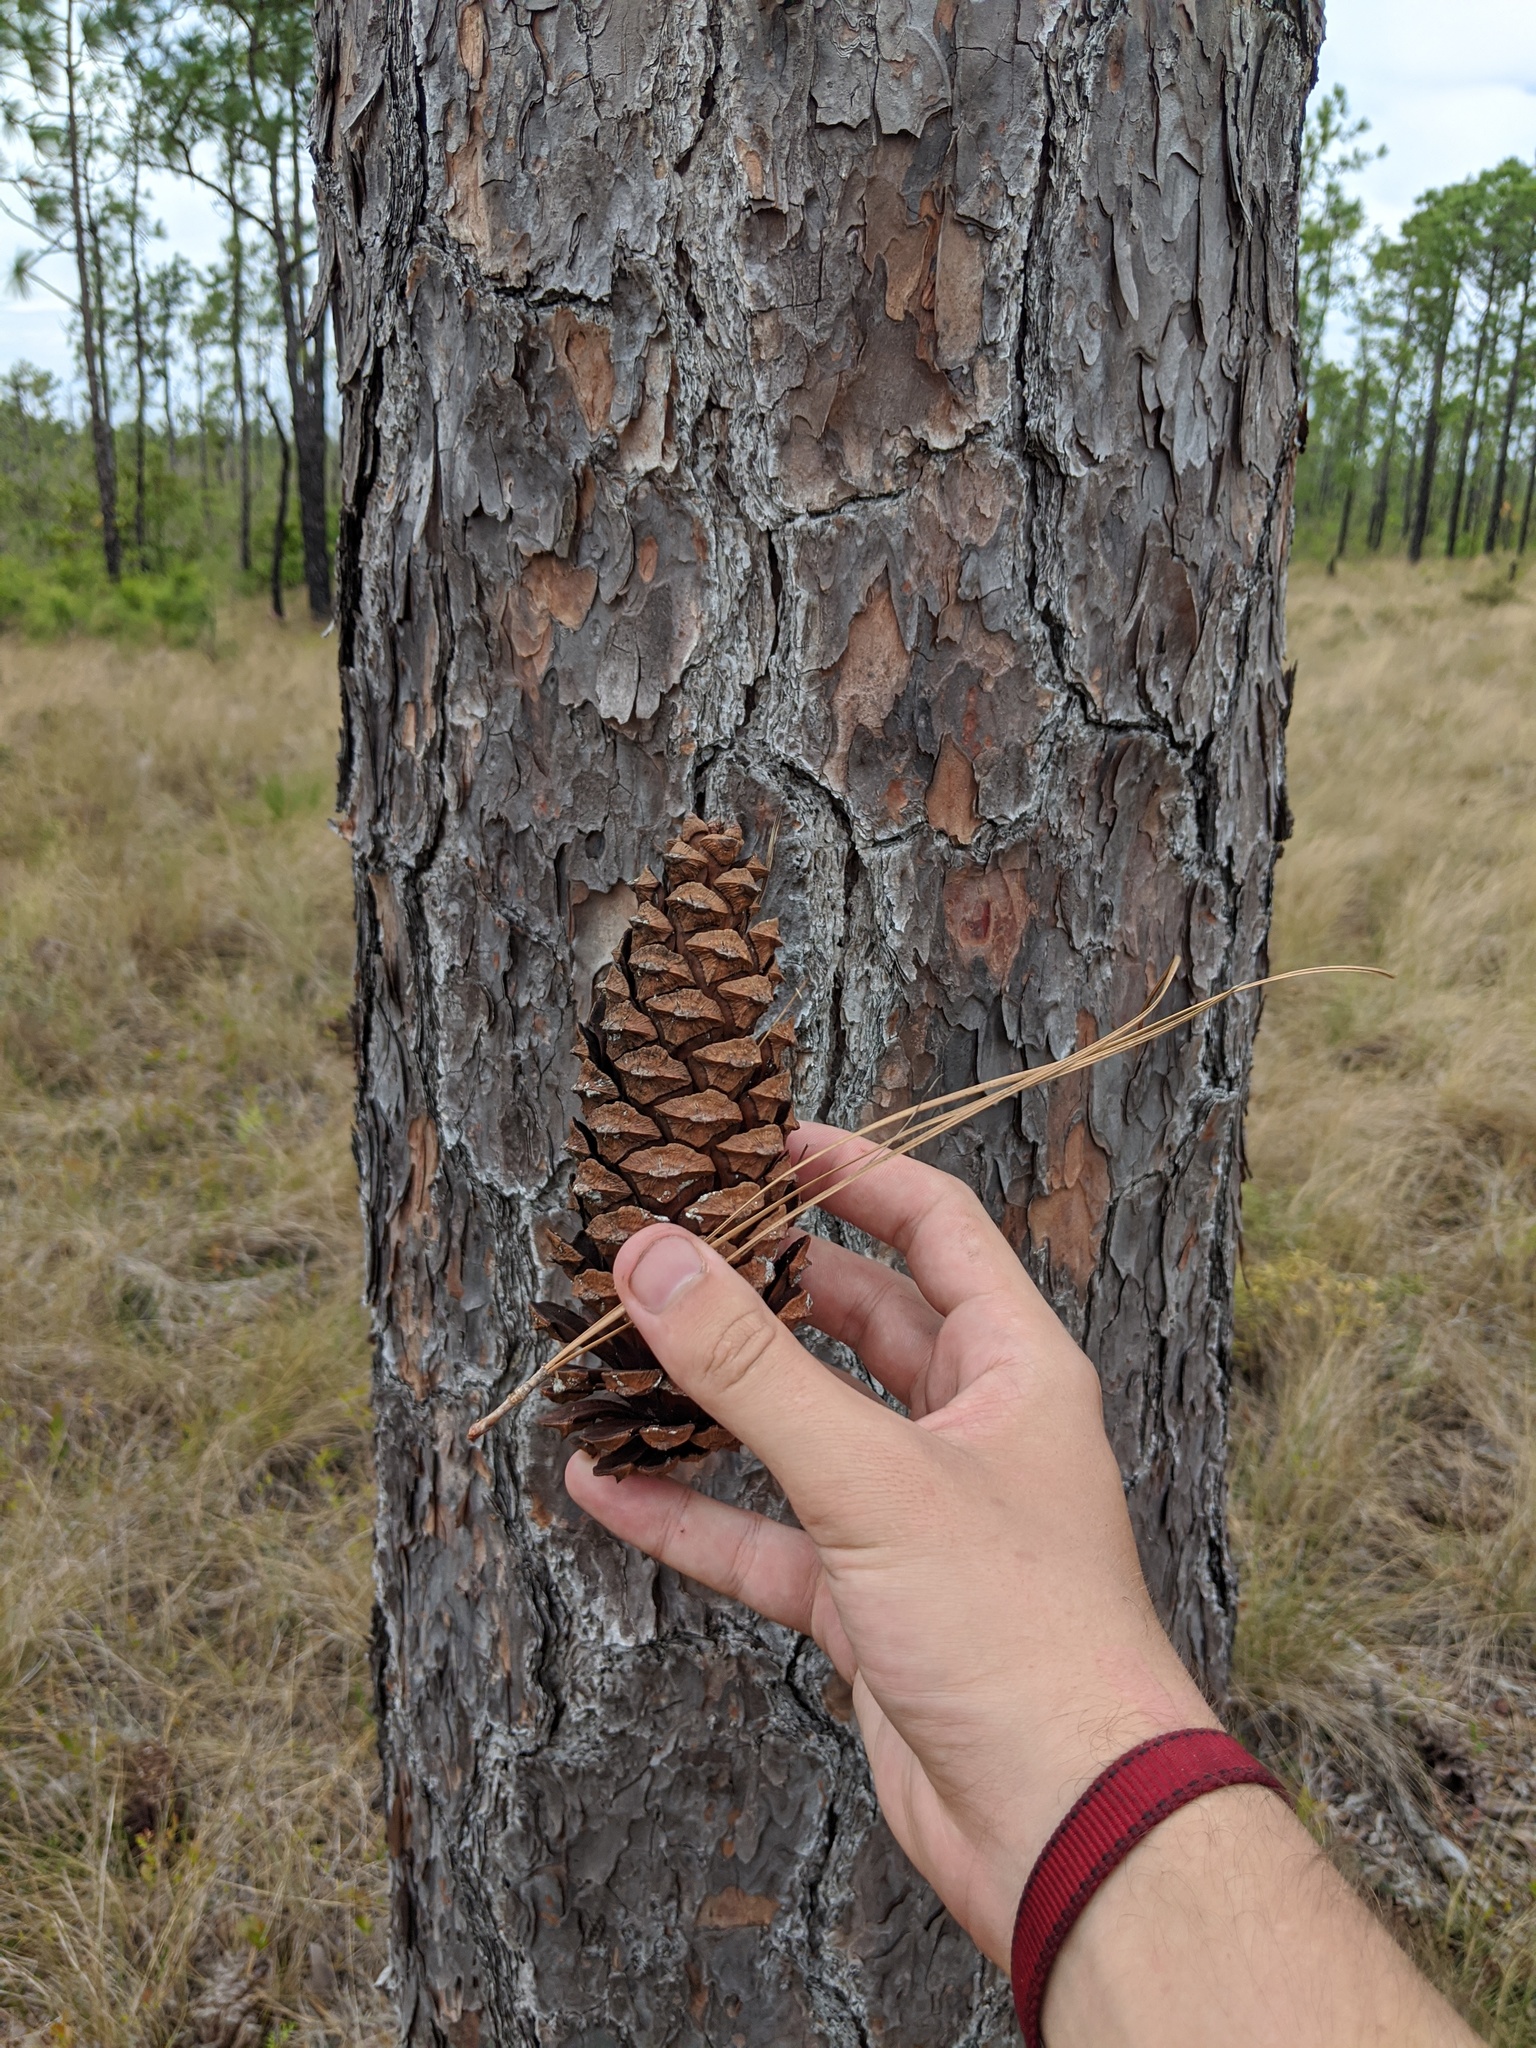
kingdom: Plantae
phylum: Tracheophyta
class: Pinopsida
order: Pinales
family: Pinaceae
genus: Pinus
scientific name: Pinus palustris
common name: Longleaf pine
